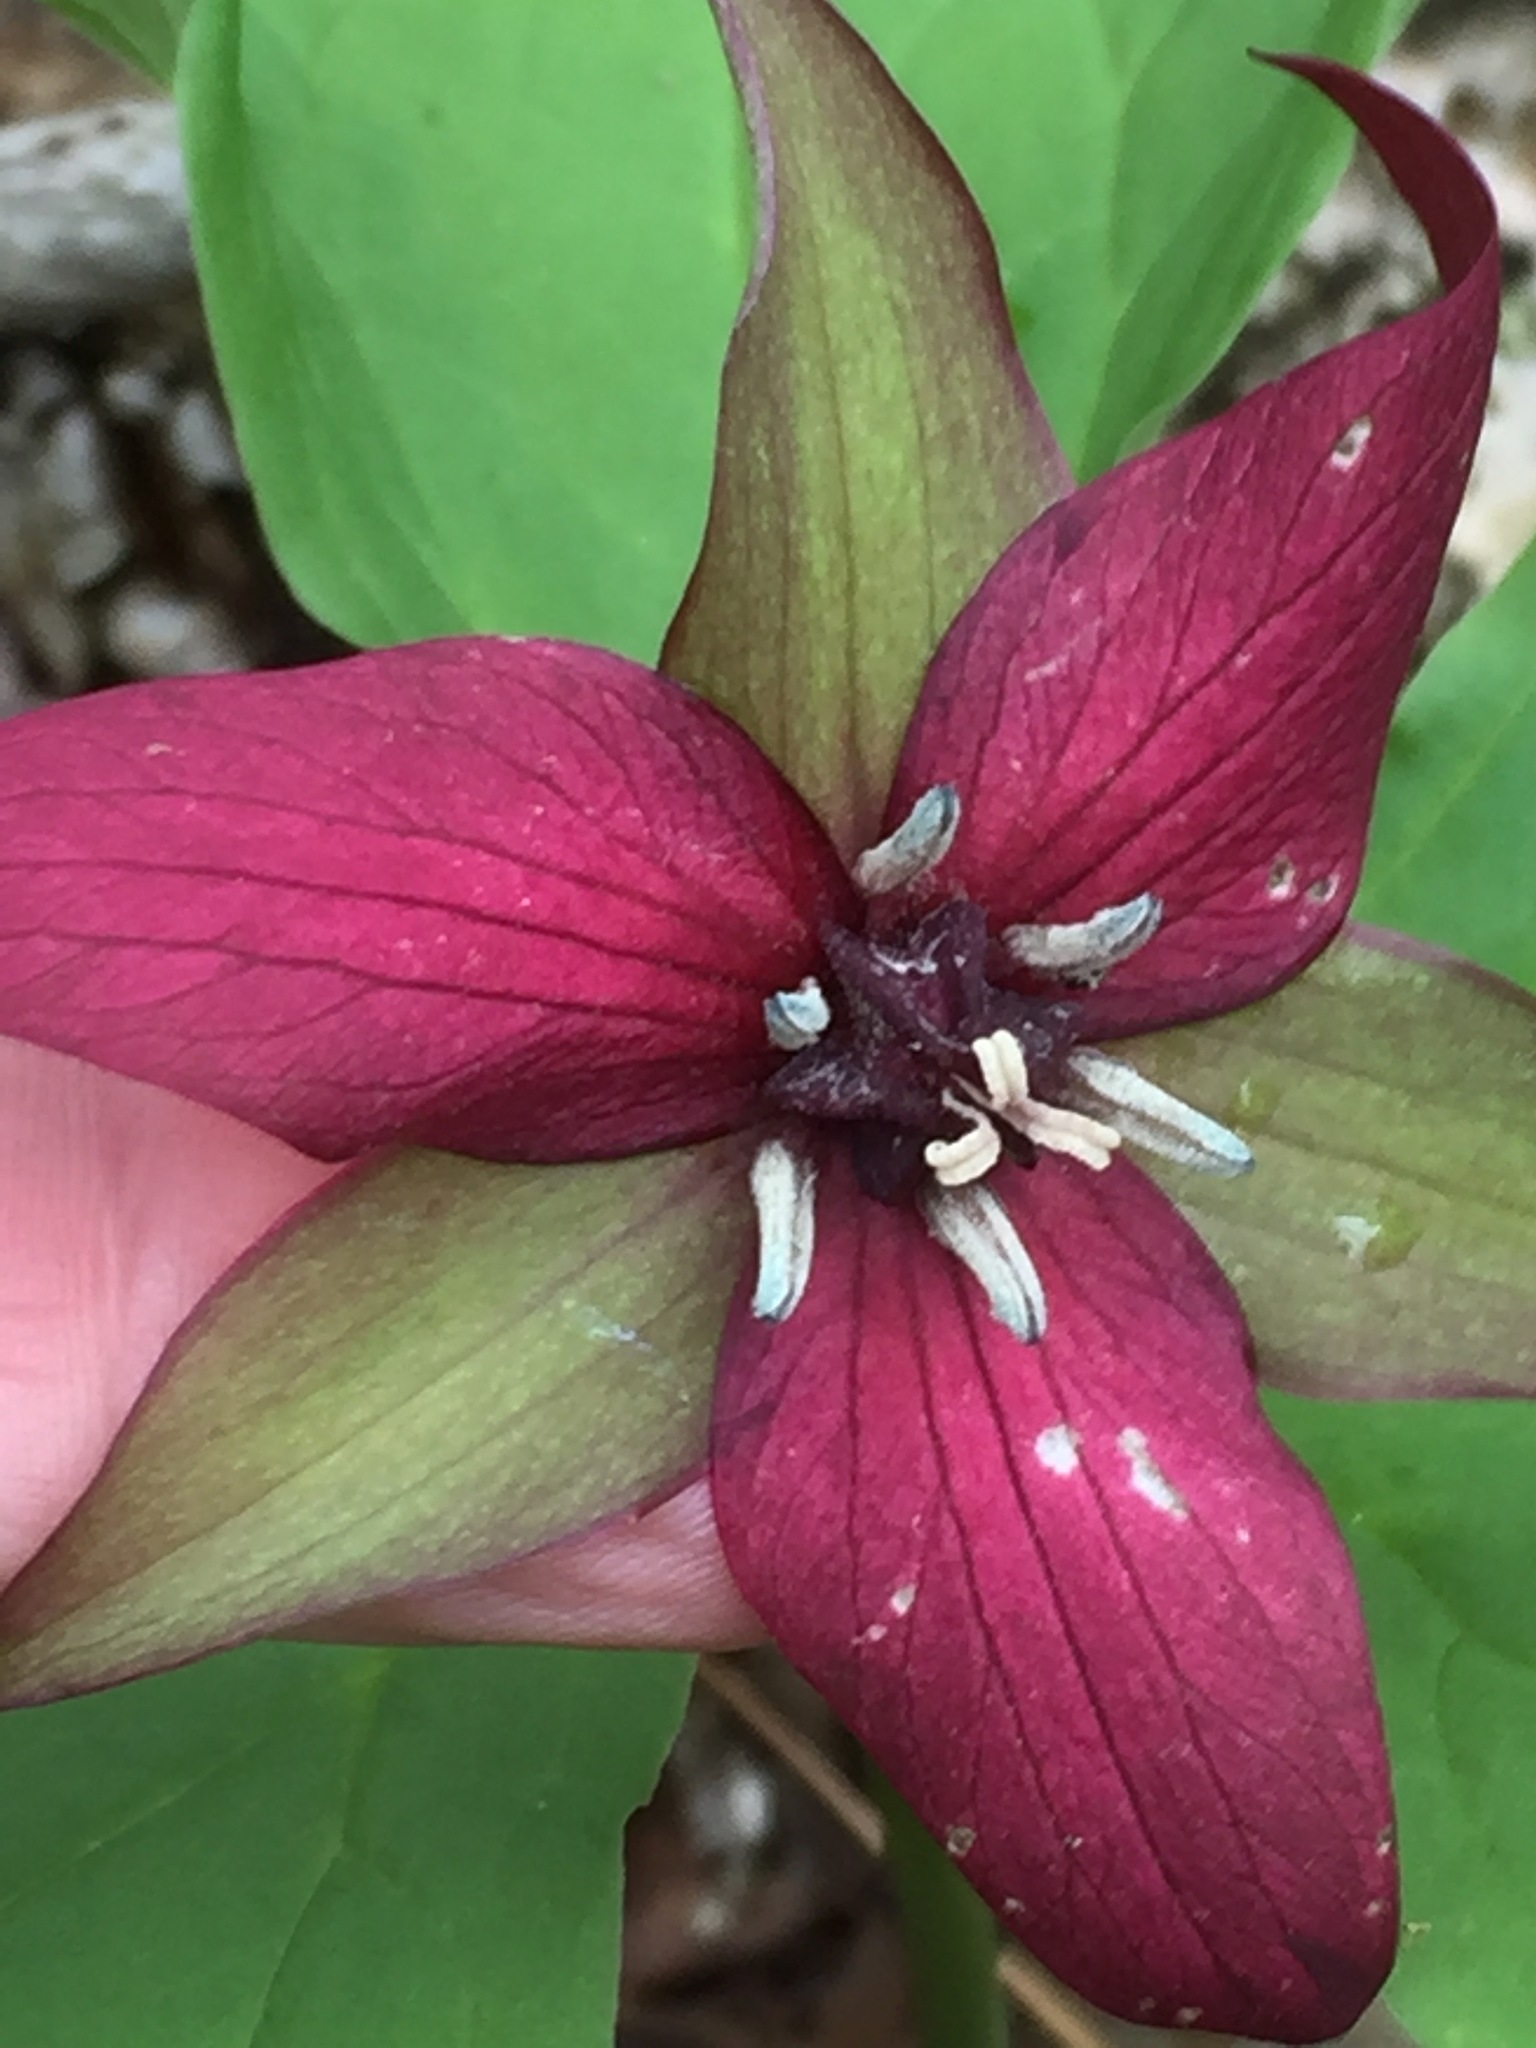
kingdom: Plantae
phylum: Tracheophyta
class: Liliopsida
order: Liliales
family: Melanthiaceae
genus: Trillium
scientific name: Trillium erectum
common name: Purple trillium
